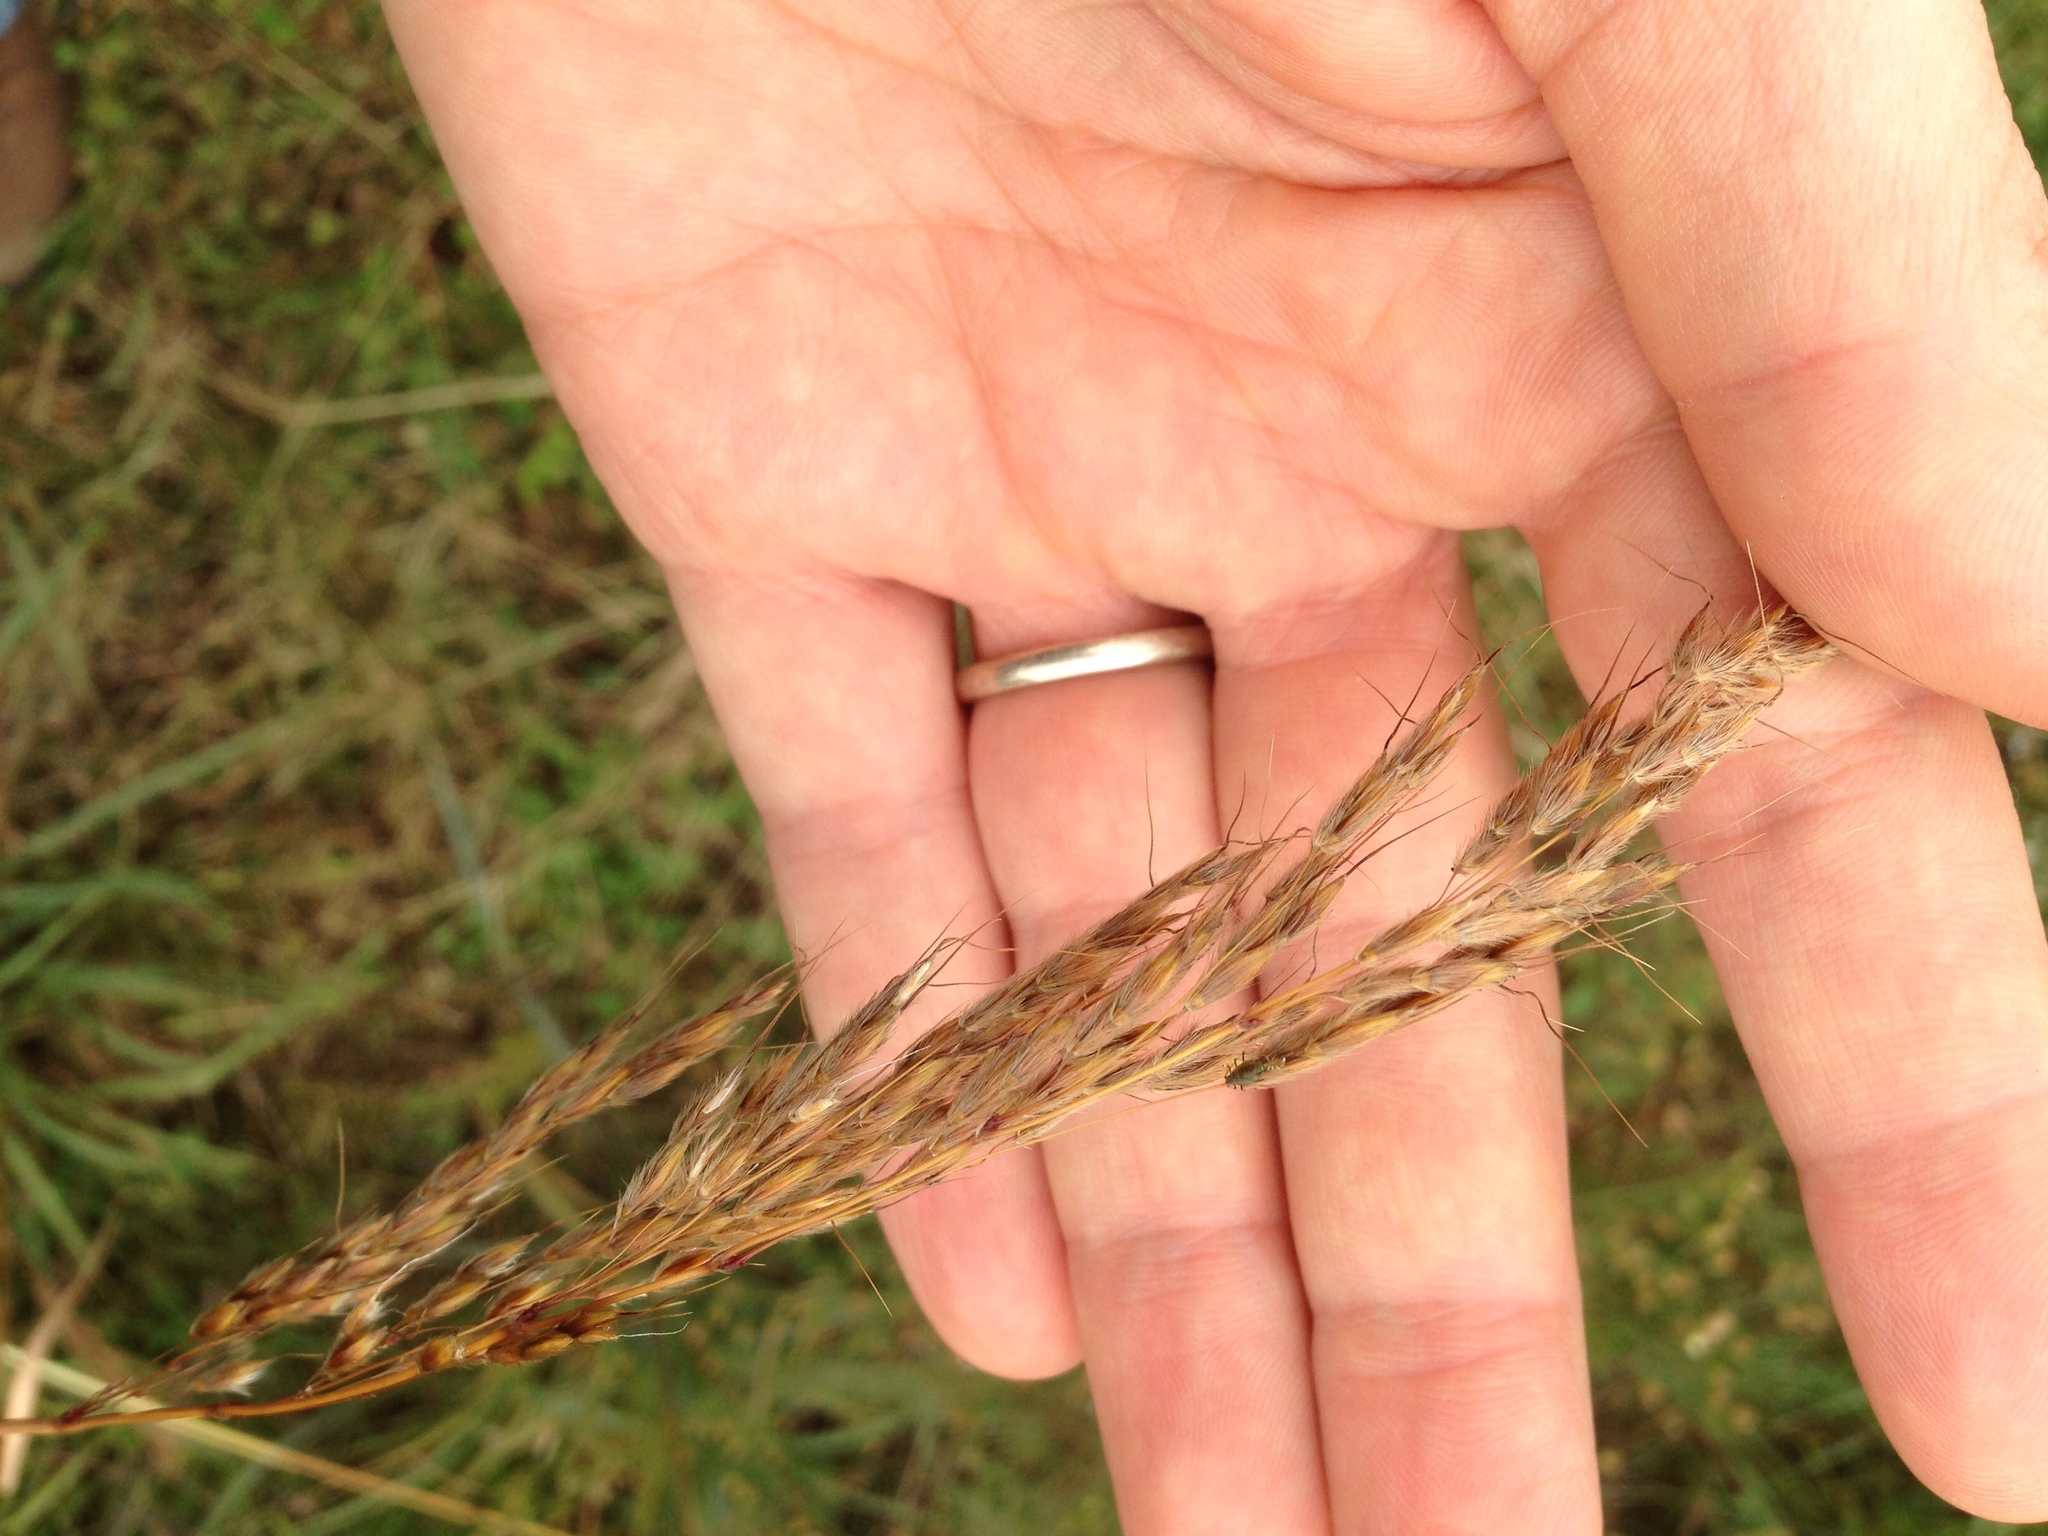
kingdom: Plantae
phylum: Tracheophyta
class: Liliopsida
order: Poales
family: Poaceae
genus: Sorghastrum
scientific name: Sorghastrum nutans
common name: Indian grass
